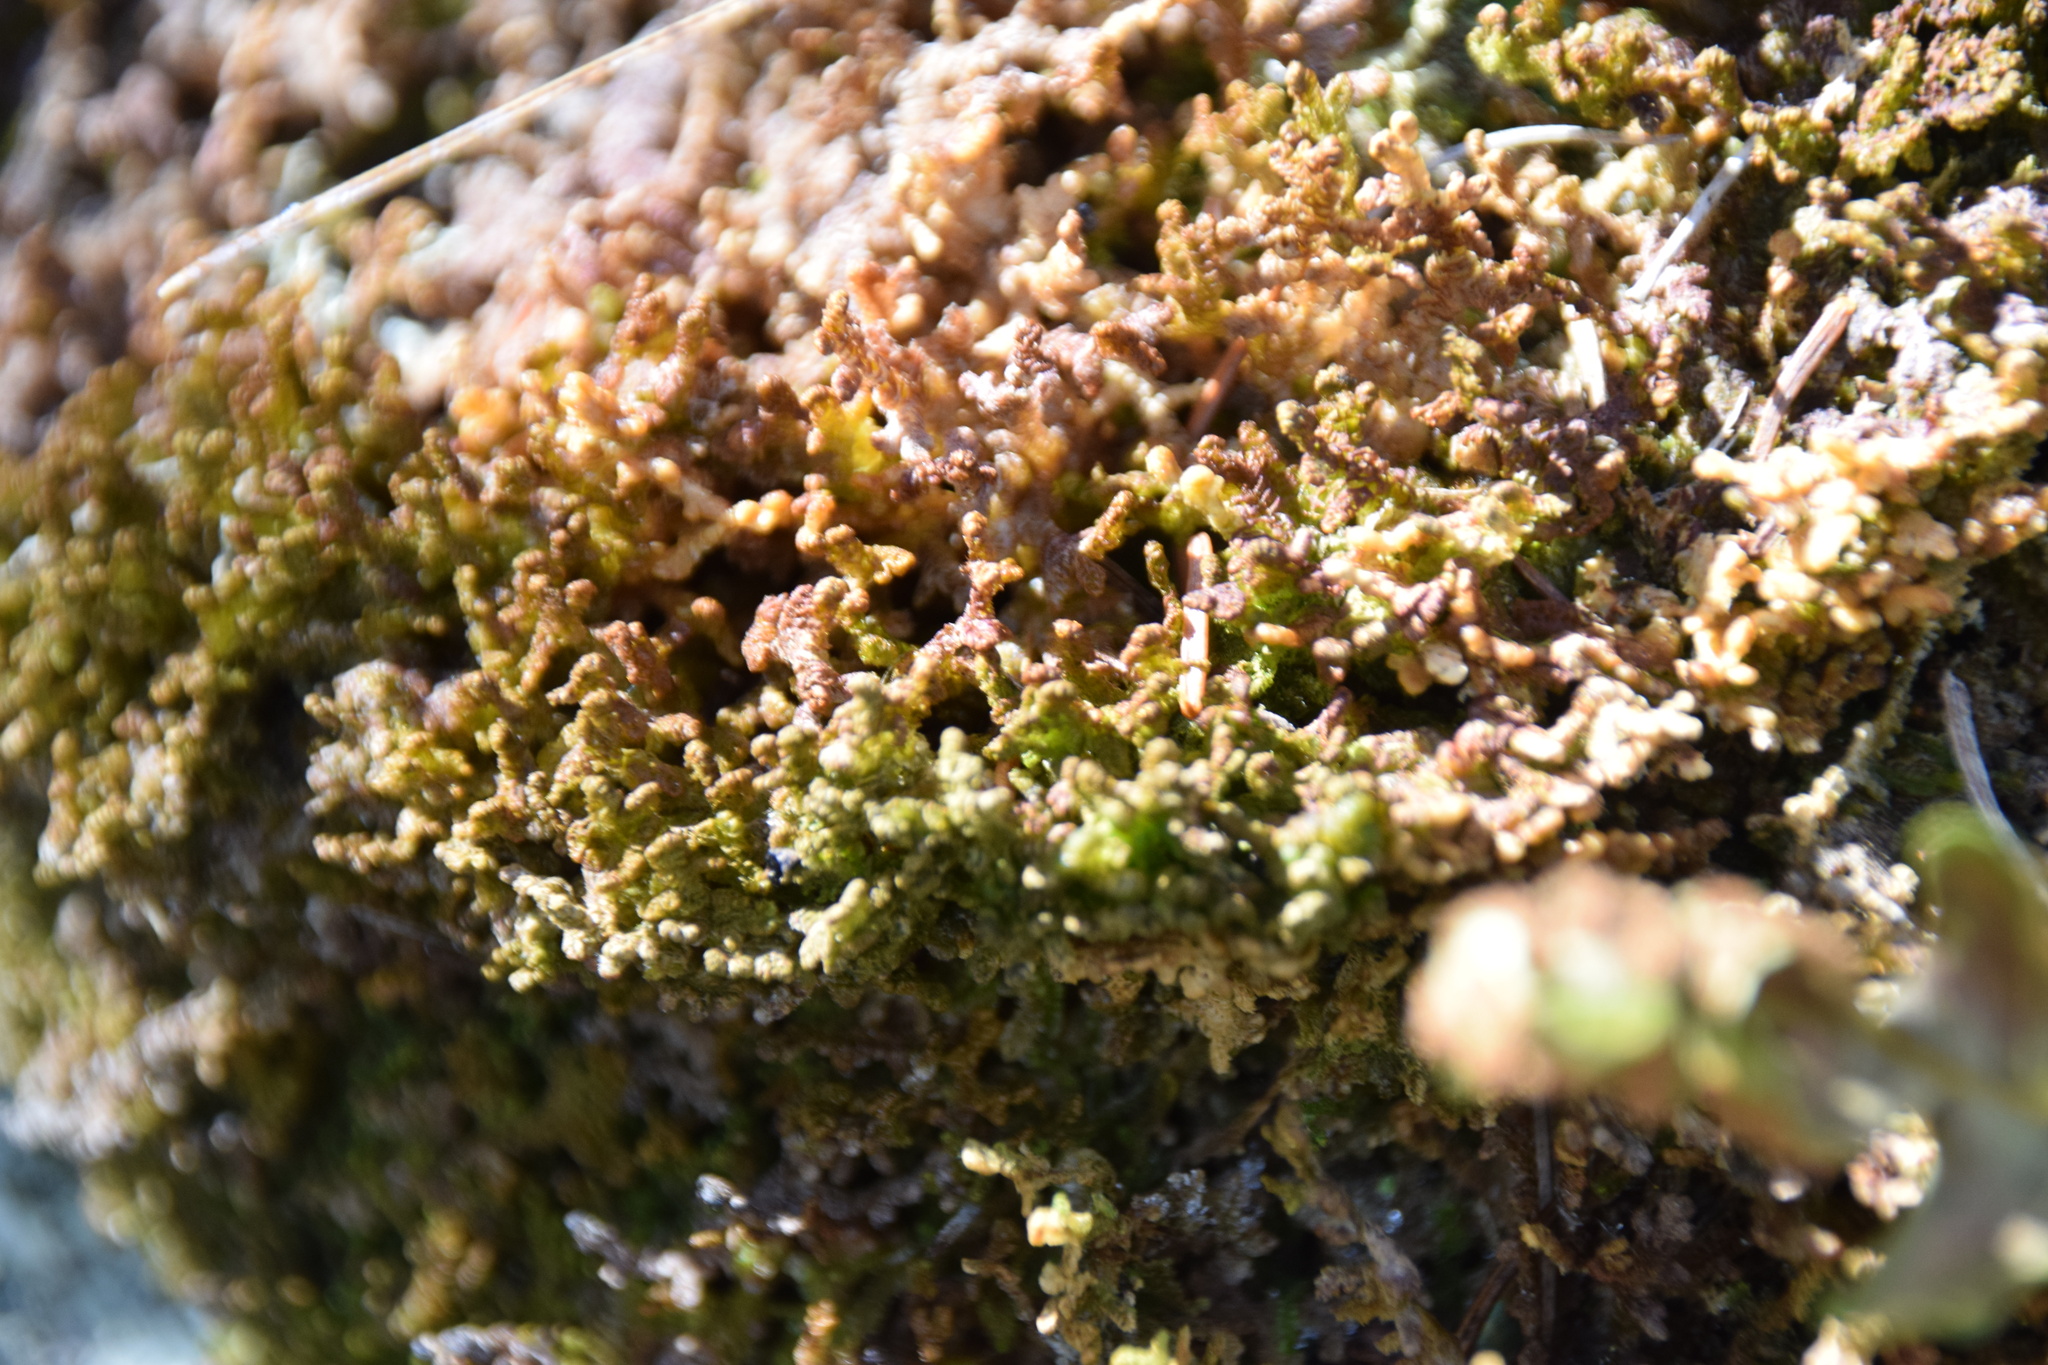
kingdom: Plantae
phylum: Marchantiophyta
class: Jungermanniopsida
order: Ptilidiales
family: Ptilidiaceae
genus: Ptilidium
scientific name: Ptilidium ciliare
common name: Ciliate fringewort
